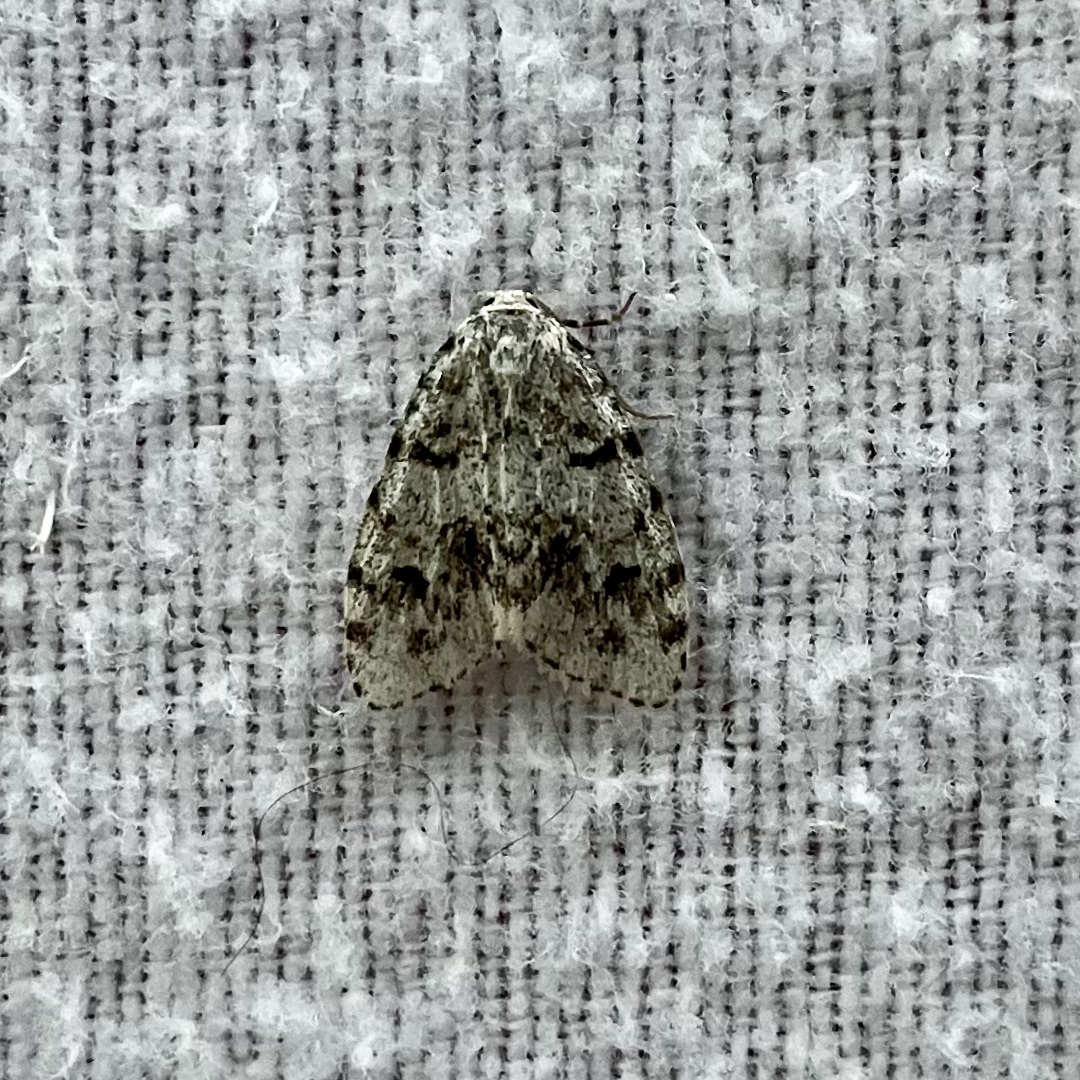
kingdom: Animalia
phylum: Arthropoda
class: Insecta
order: Lepidoptera
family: Erebidae
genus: Clemensia
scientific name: Clemensia albata
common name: Little white lichen moth
